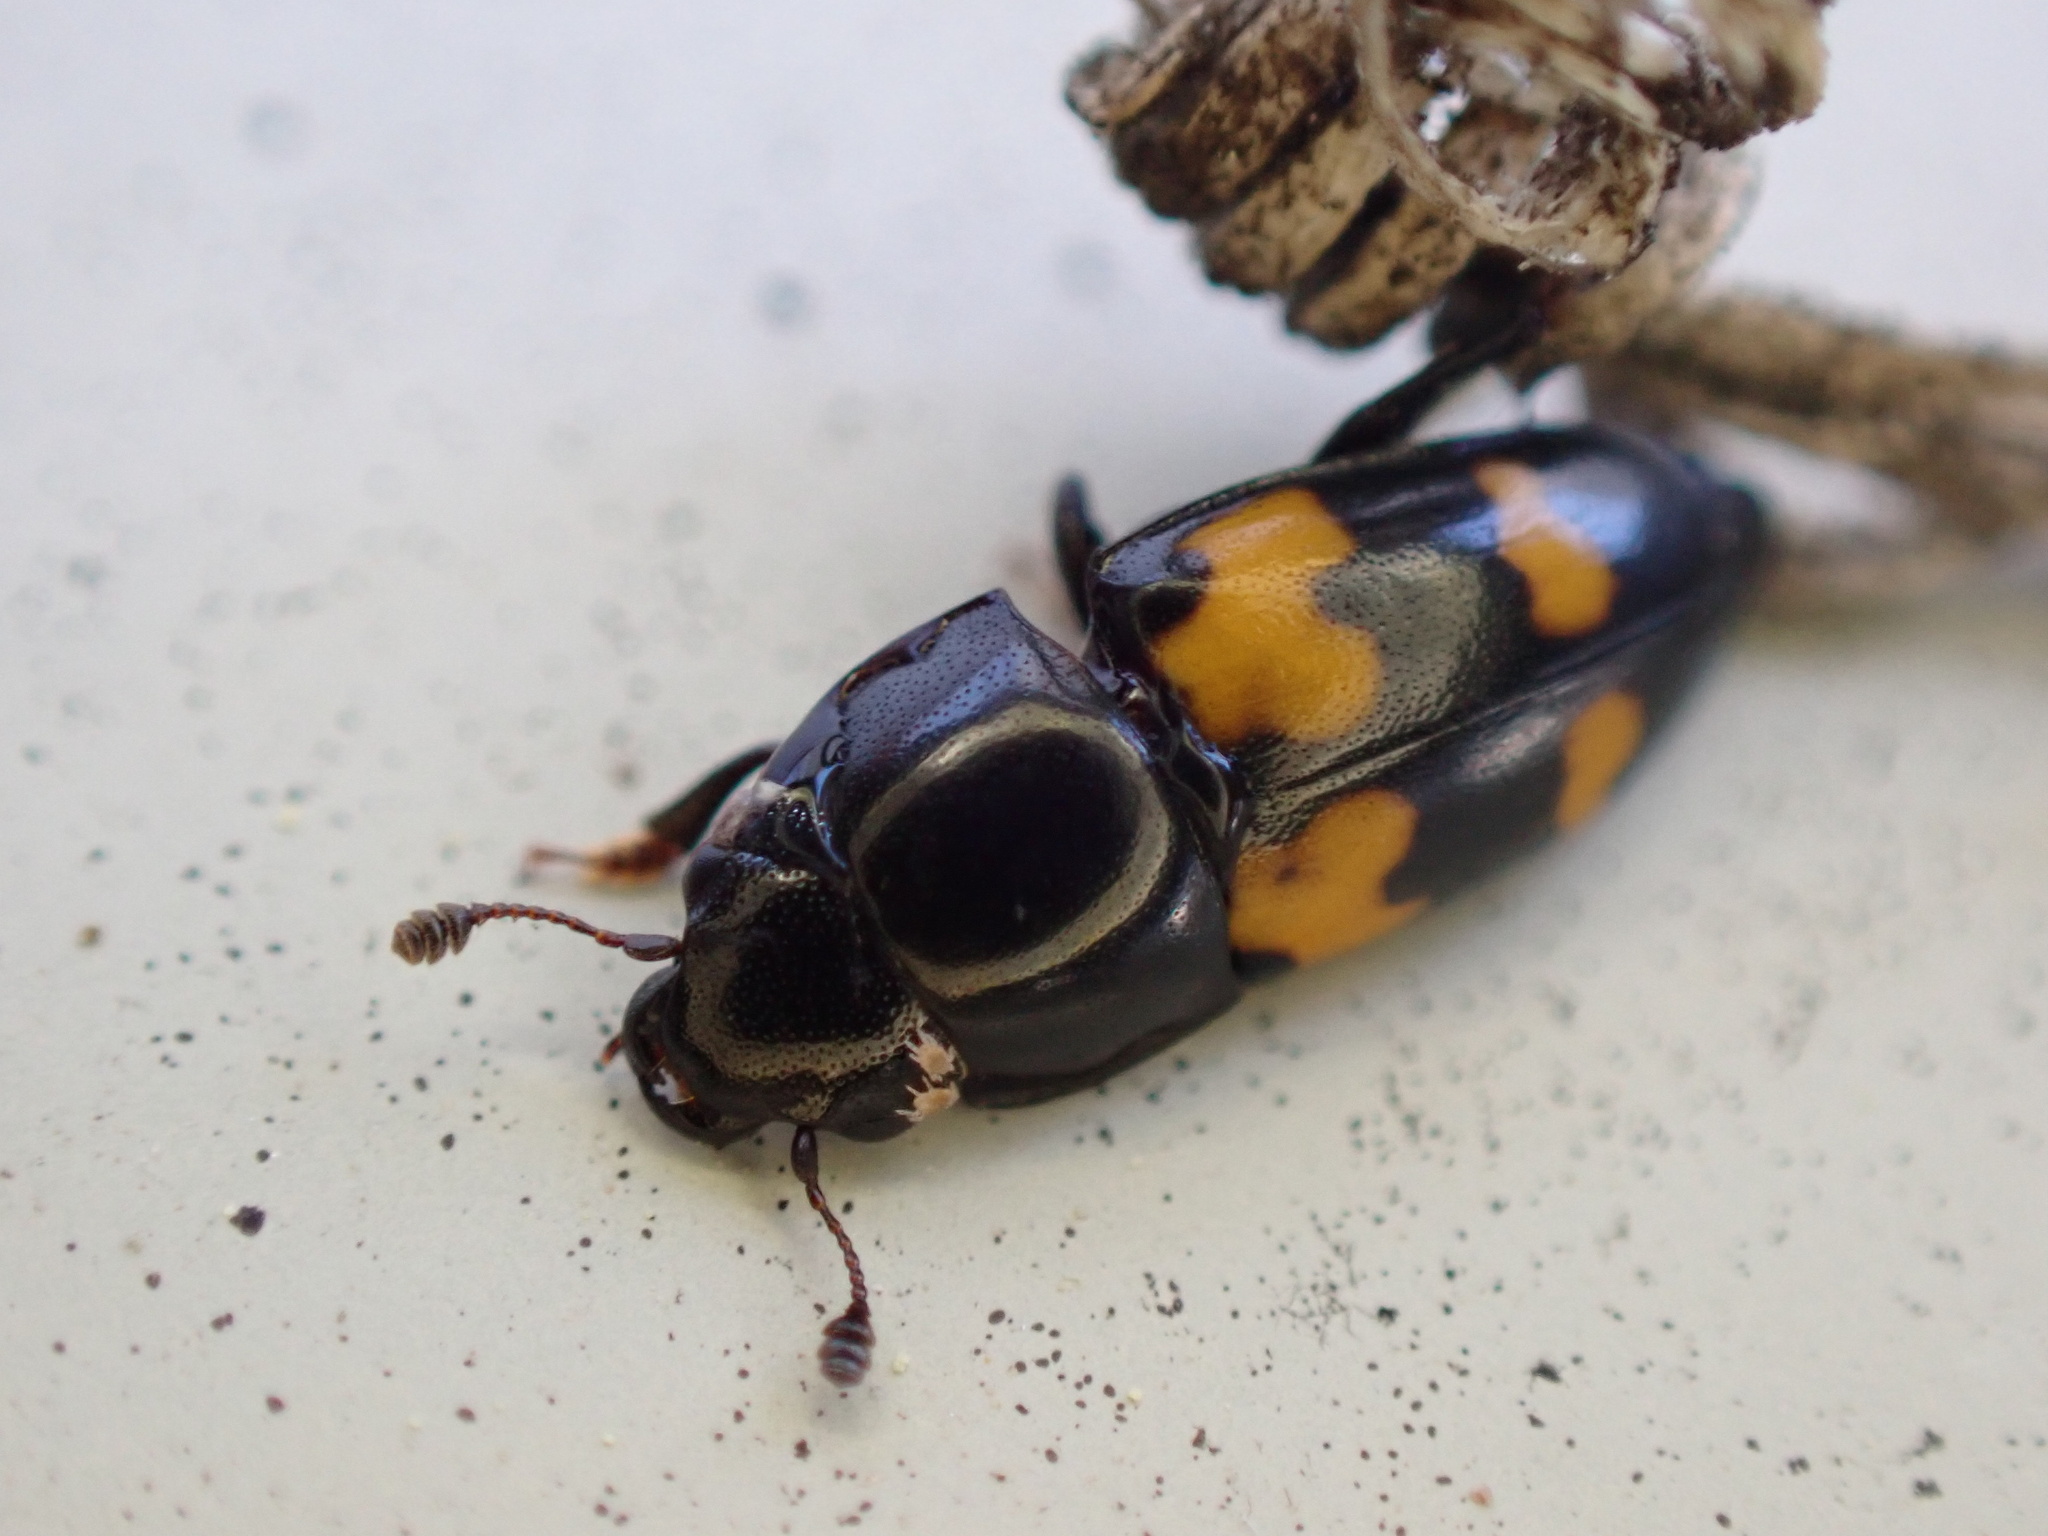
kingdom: Animalia
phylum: Arthropoda
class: Insecta
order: Coleoptera
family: Nitidulidae
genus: Glischrochilus
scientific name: Glischrochilus fasciatus
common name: Picnic beetle
